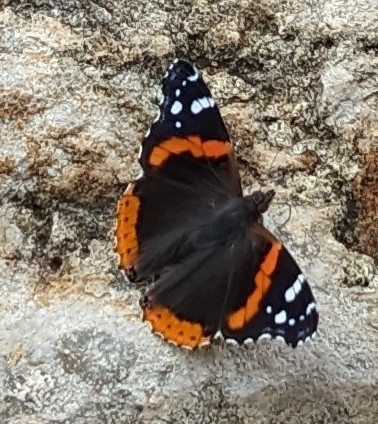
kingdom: Animalia
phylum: Arthropoda
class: Insecta
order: Lepidoptera
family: Nymphalidae
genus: Vanessa
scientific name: Vanessa atalanta
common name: Red admiral
